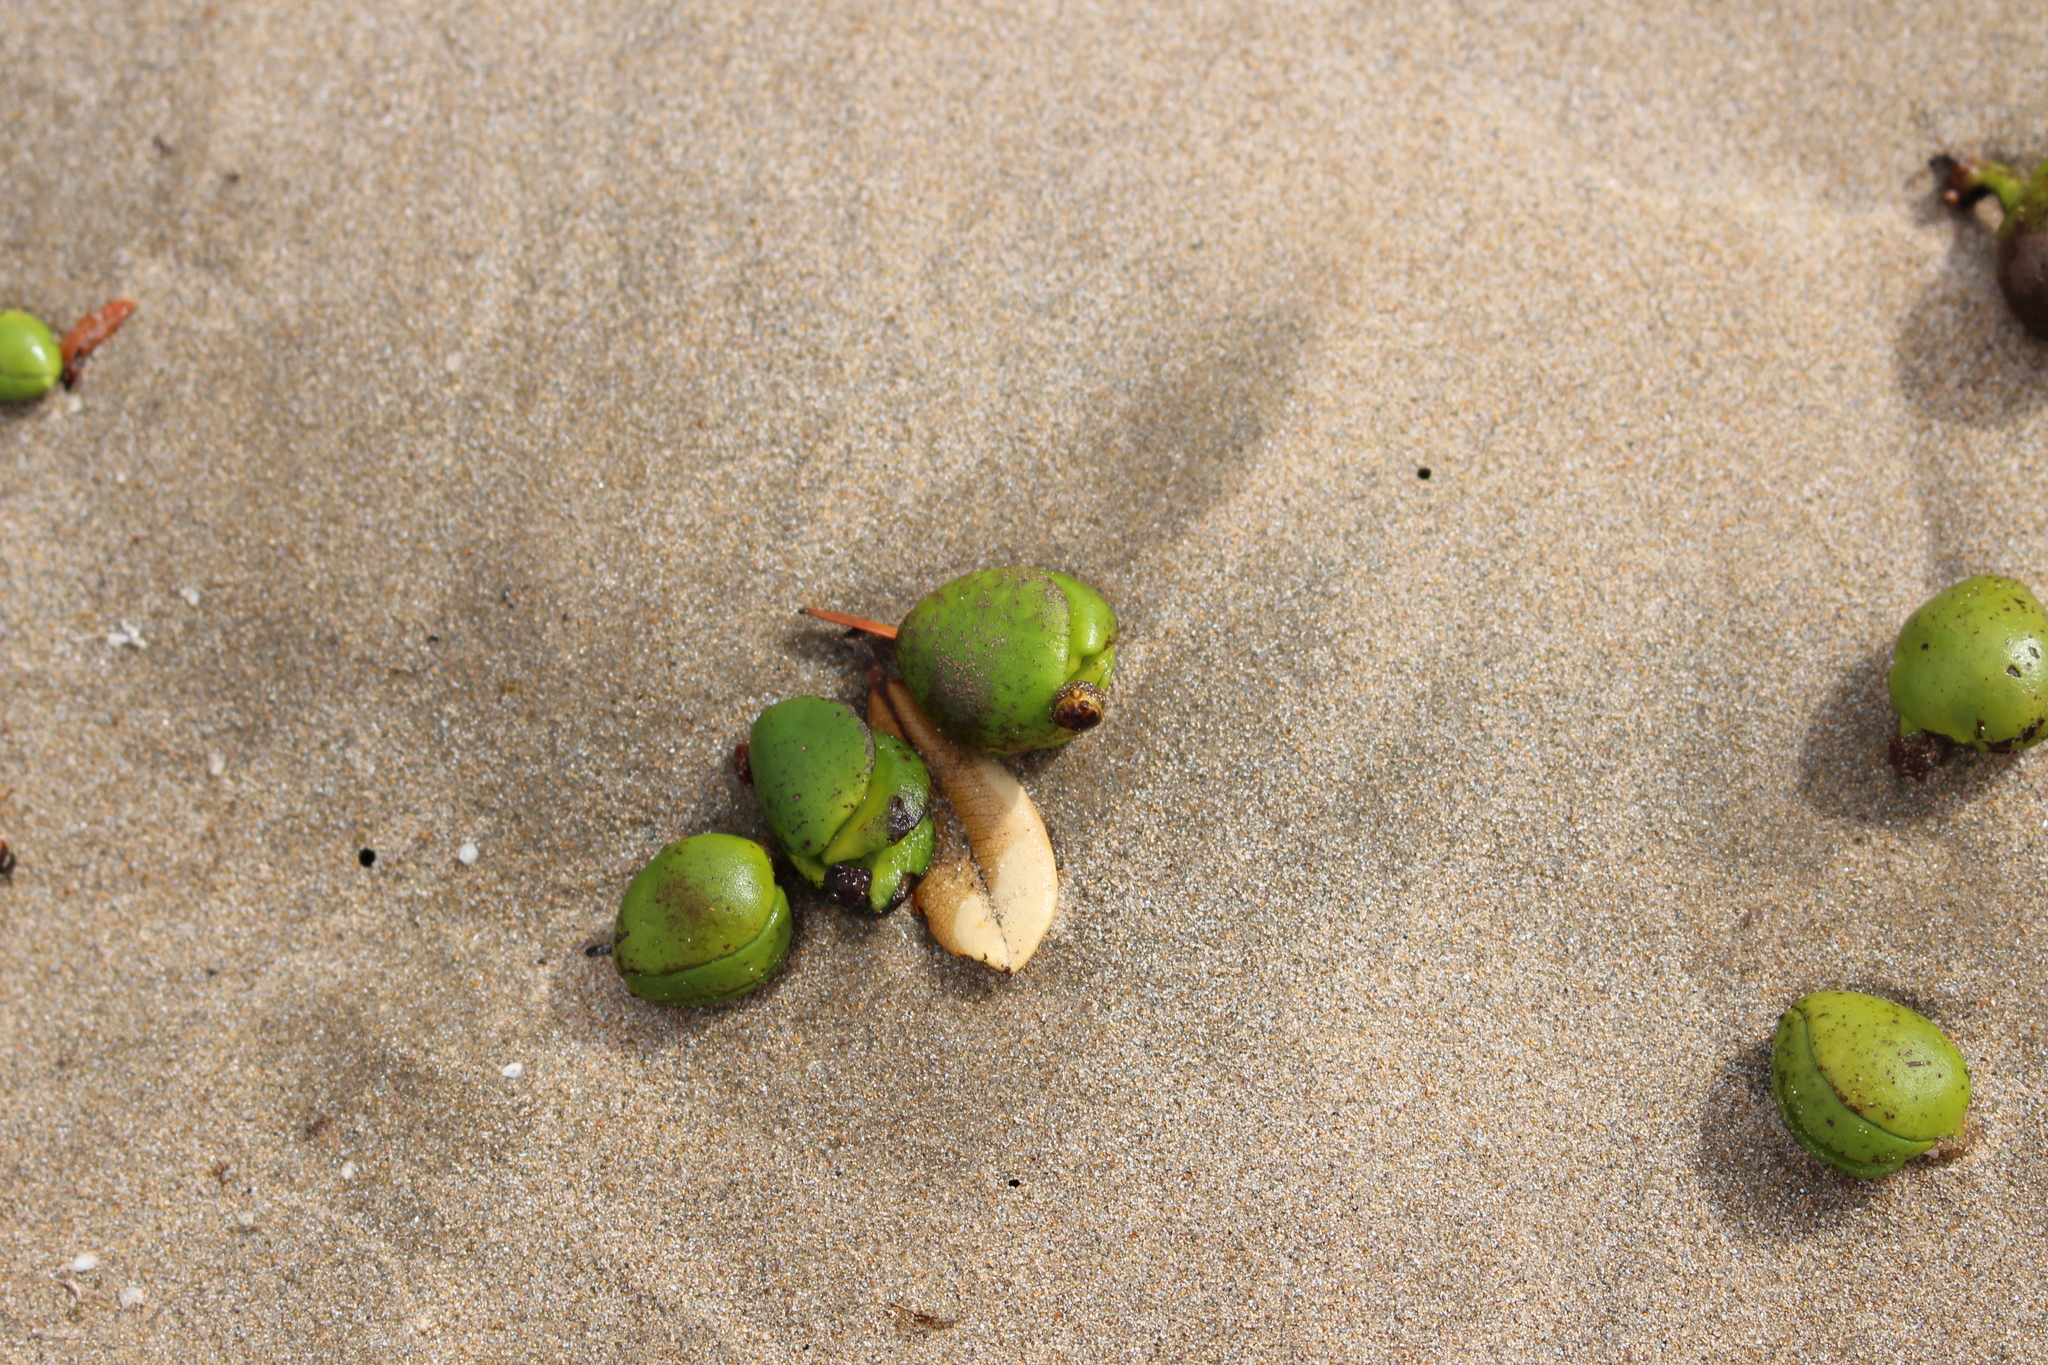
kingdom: Plantae
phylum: Tracheophyta
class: Magnoliopsida
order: Lamiales
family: Acanthaceae
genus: Avicennia
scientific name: Avicennia marina
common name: Gray mangrove
